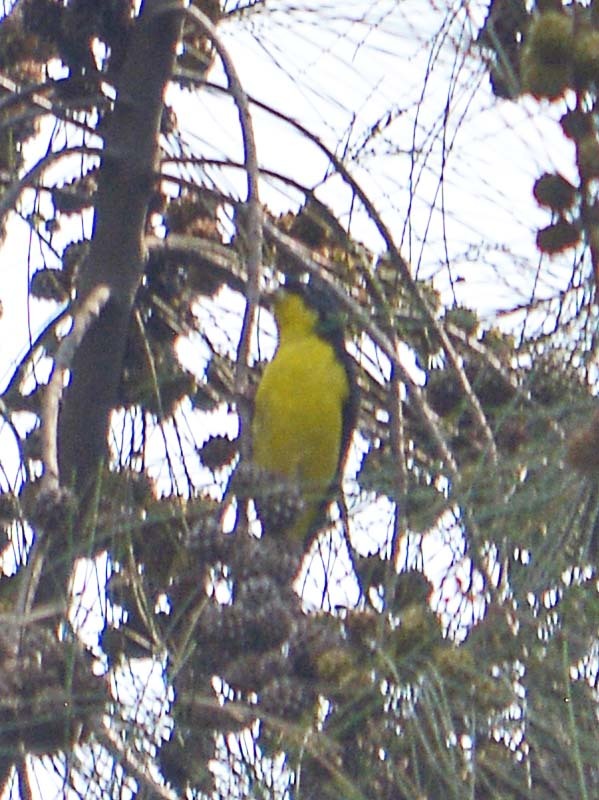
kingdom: Animalia
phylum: Chordata
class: Aves
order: Passeriformes
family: Fringillidae
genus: Spinus
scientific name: Spinus psaltria
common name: Lesser goldfinch
